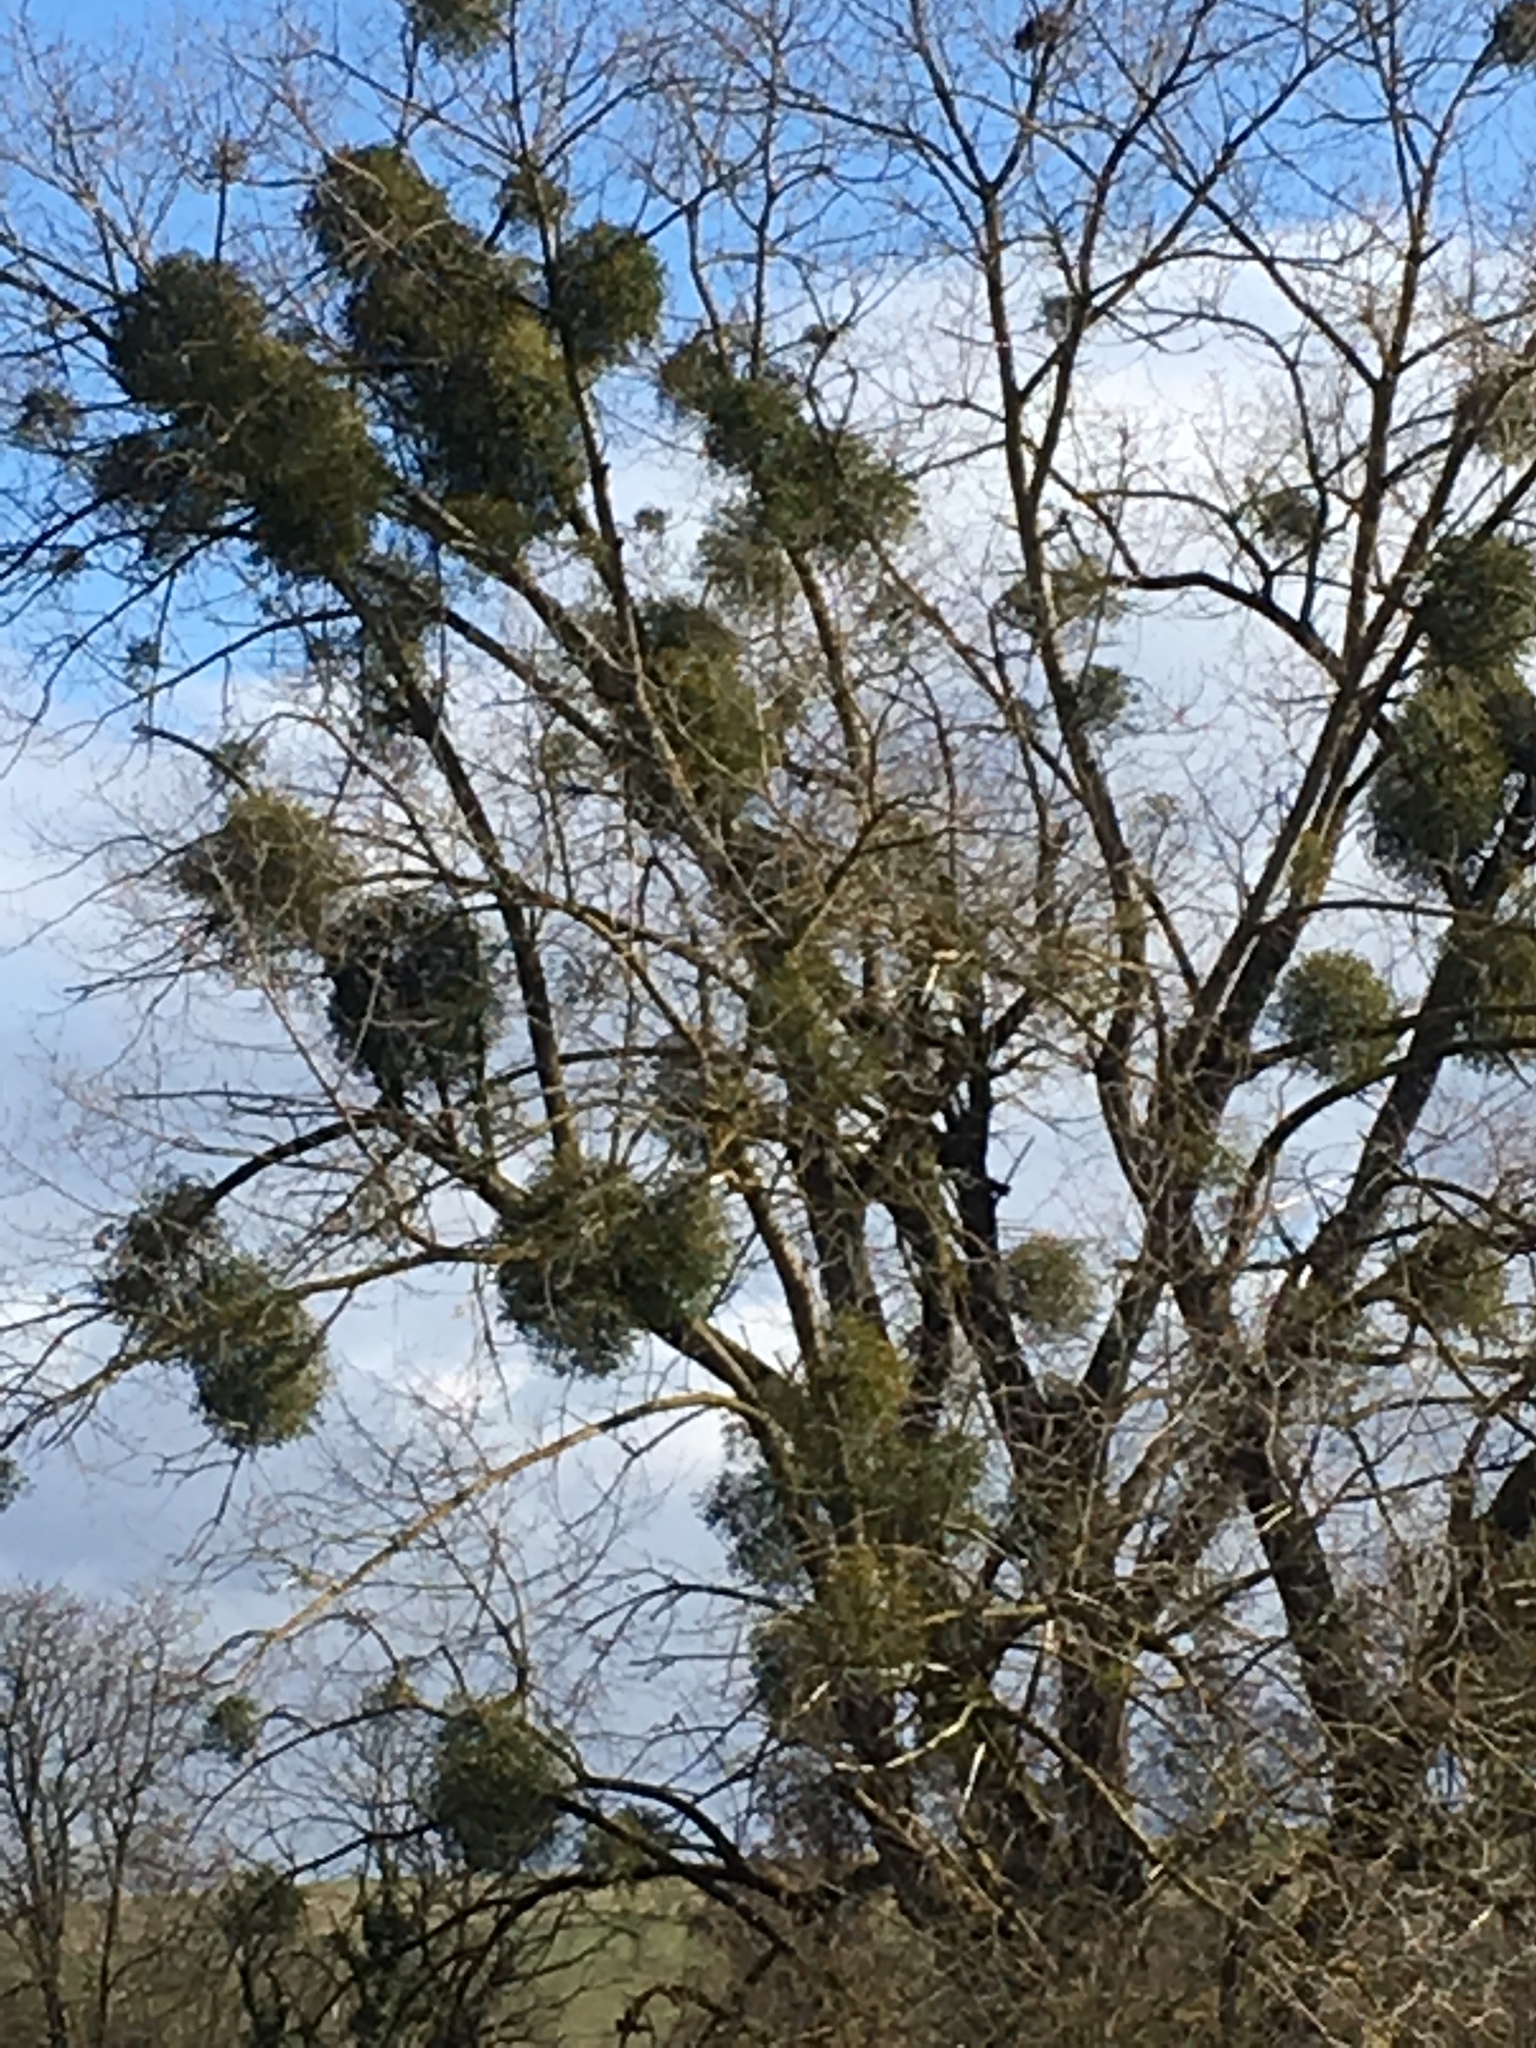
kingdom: Plantae
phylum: Tracheophyta
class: Magnoliopsida
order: Santalales
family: Viscaceae
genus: Viscum
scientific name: Viscum album
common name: Mistletoe
